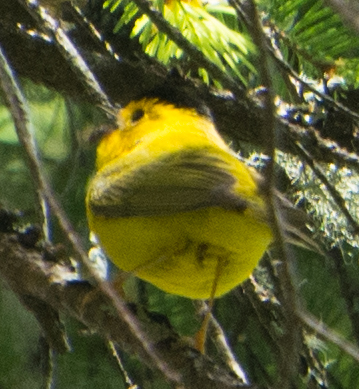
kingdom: Animalia
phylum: Chordata
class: Aves
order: Passeriformes
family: Parulidae
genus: Cardellina
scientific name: Cardellina pusilla
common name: Wilson's warbler
